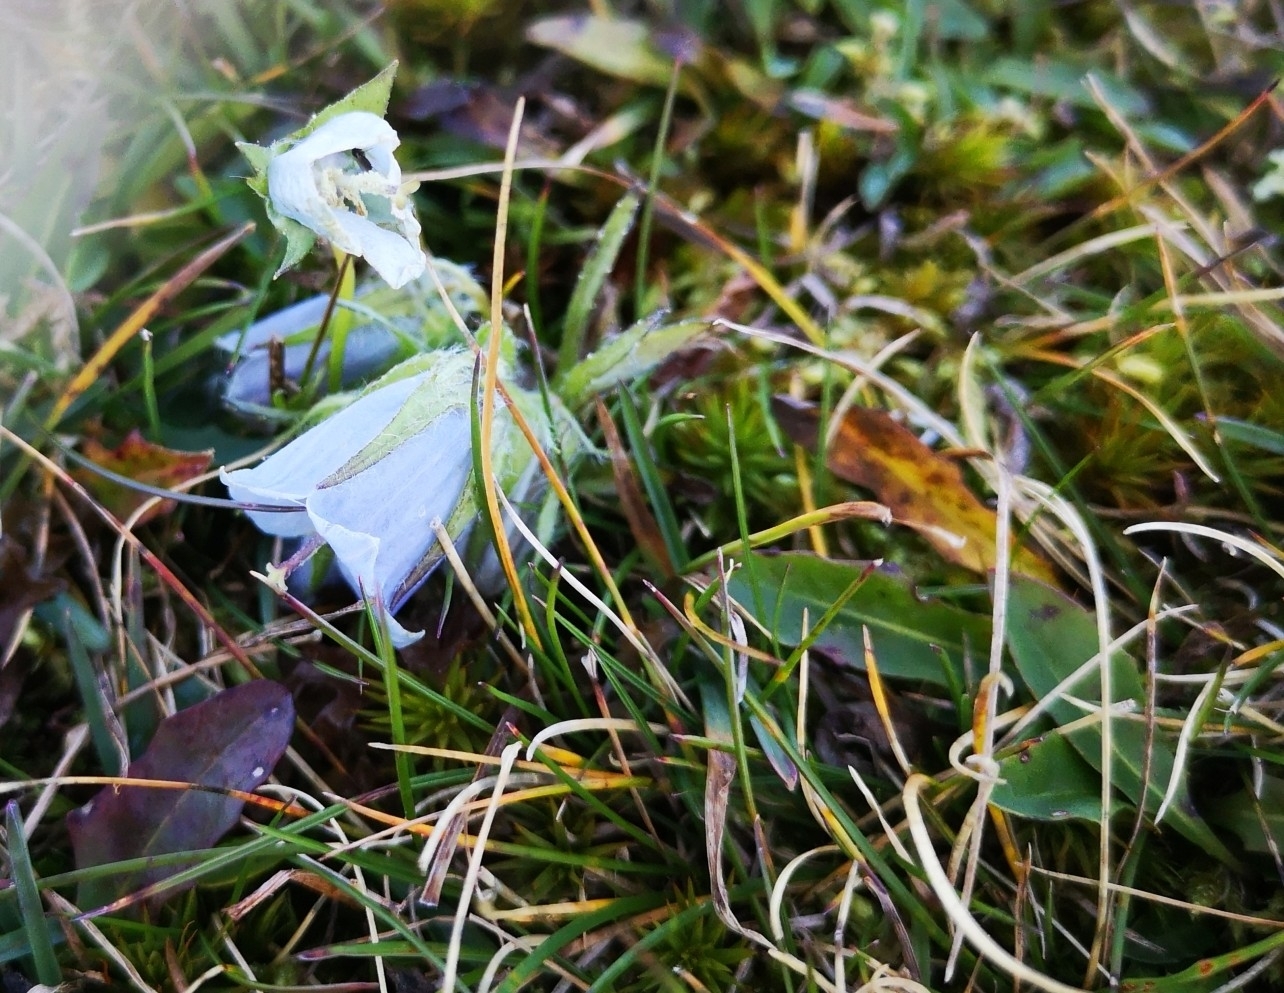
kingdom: Plantae
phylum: Tracheophyta
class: Magnoliopsida
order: Asterales
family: Campanulaceae
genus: Campanula
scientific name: Campanula alpina
